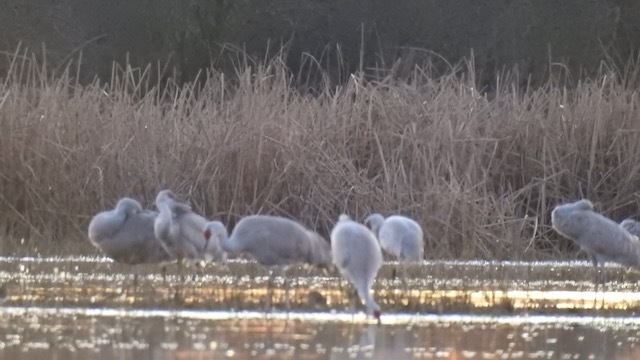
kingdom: Animalia
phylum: Chordata
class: Aves
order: Gruiformes
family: Gruidae
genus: Grus
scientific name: Grus canadensis
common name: Sandhill crane
